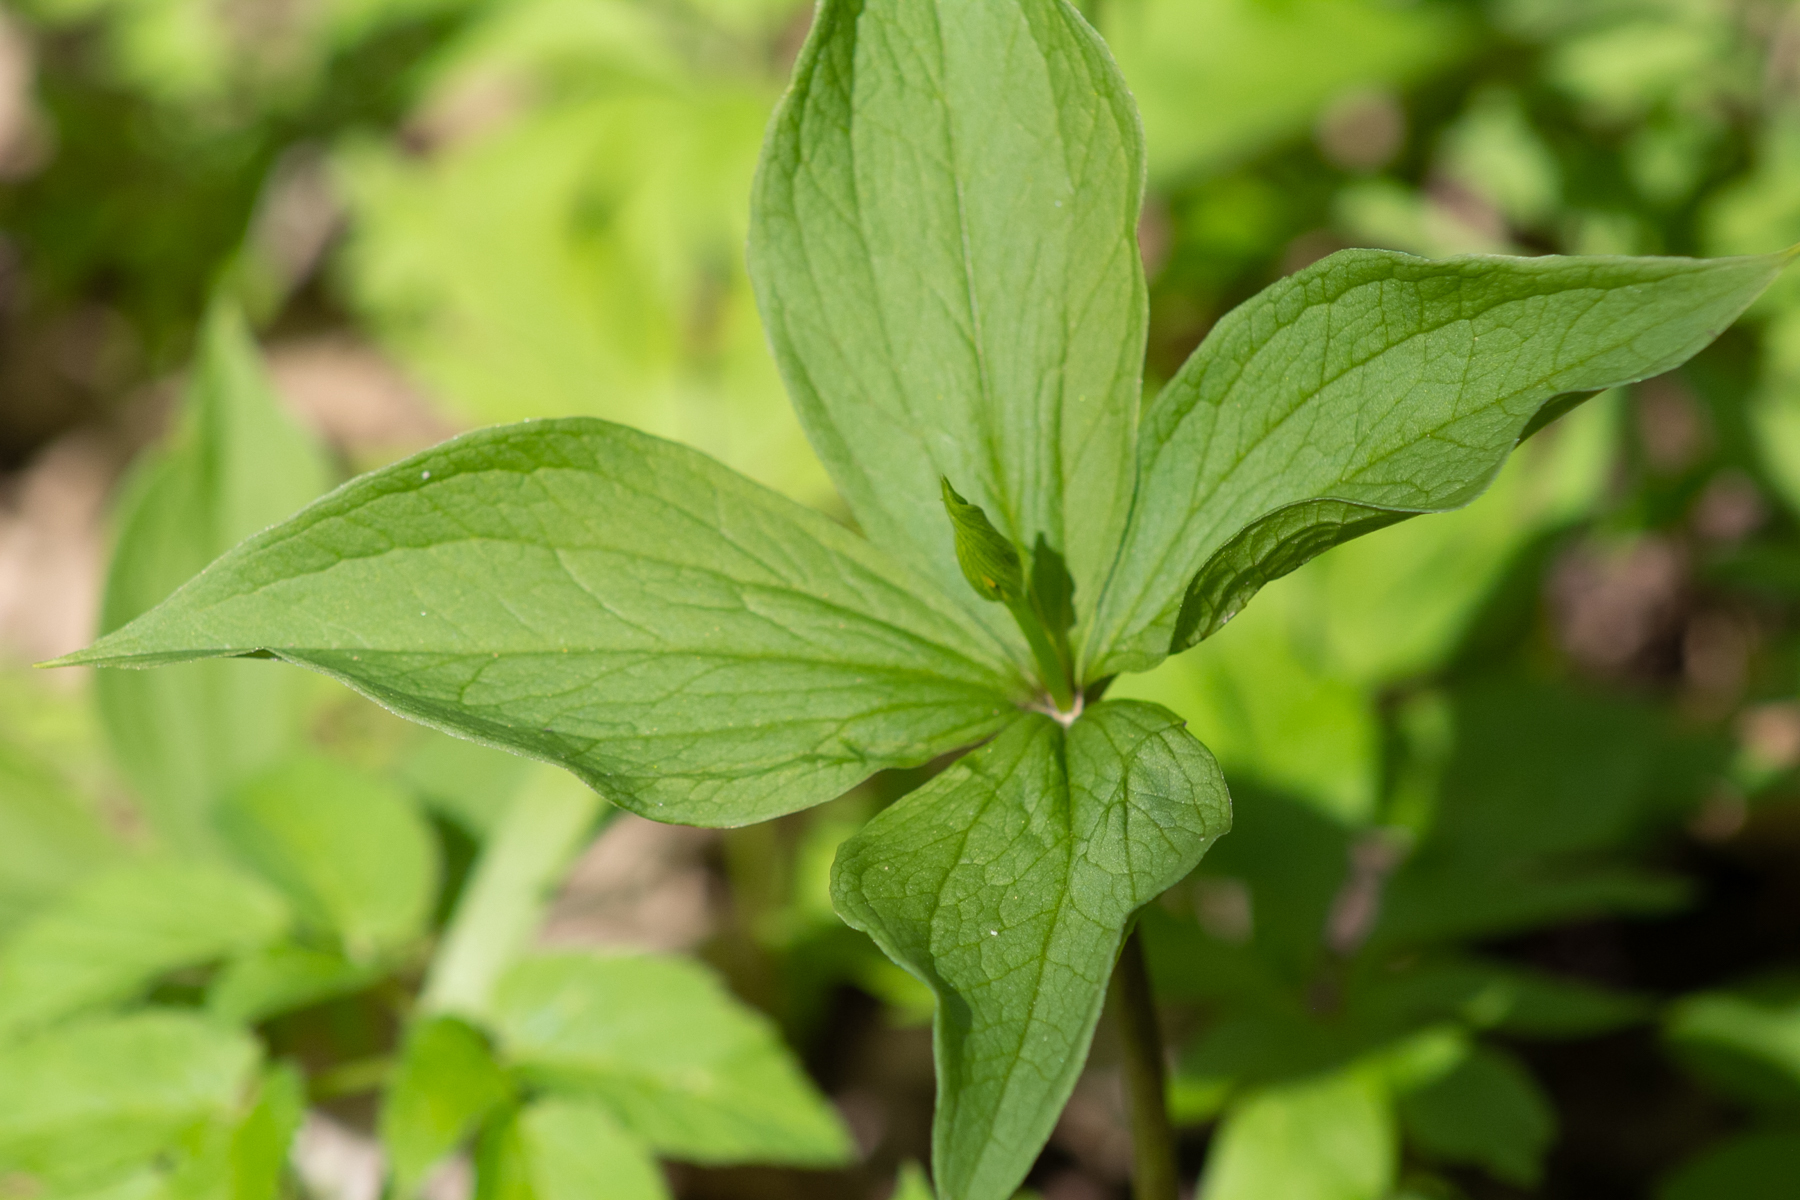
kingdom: Plantae
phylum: Tracheophyta
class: Liliopsida
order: Liliales
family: Melanthiaceae
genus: Paris
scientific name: Paris quadrifolia
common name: Herb-paris
